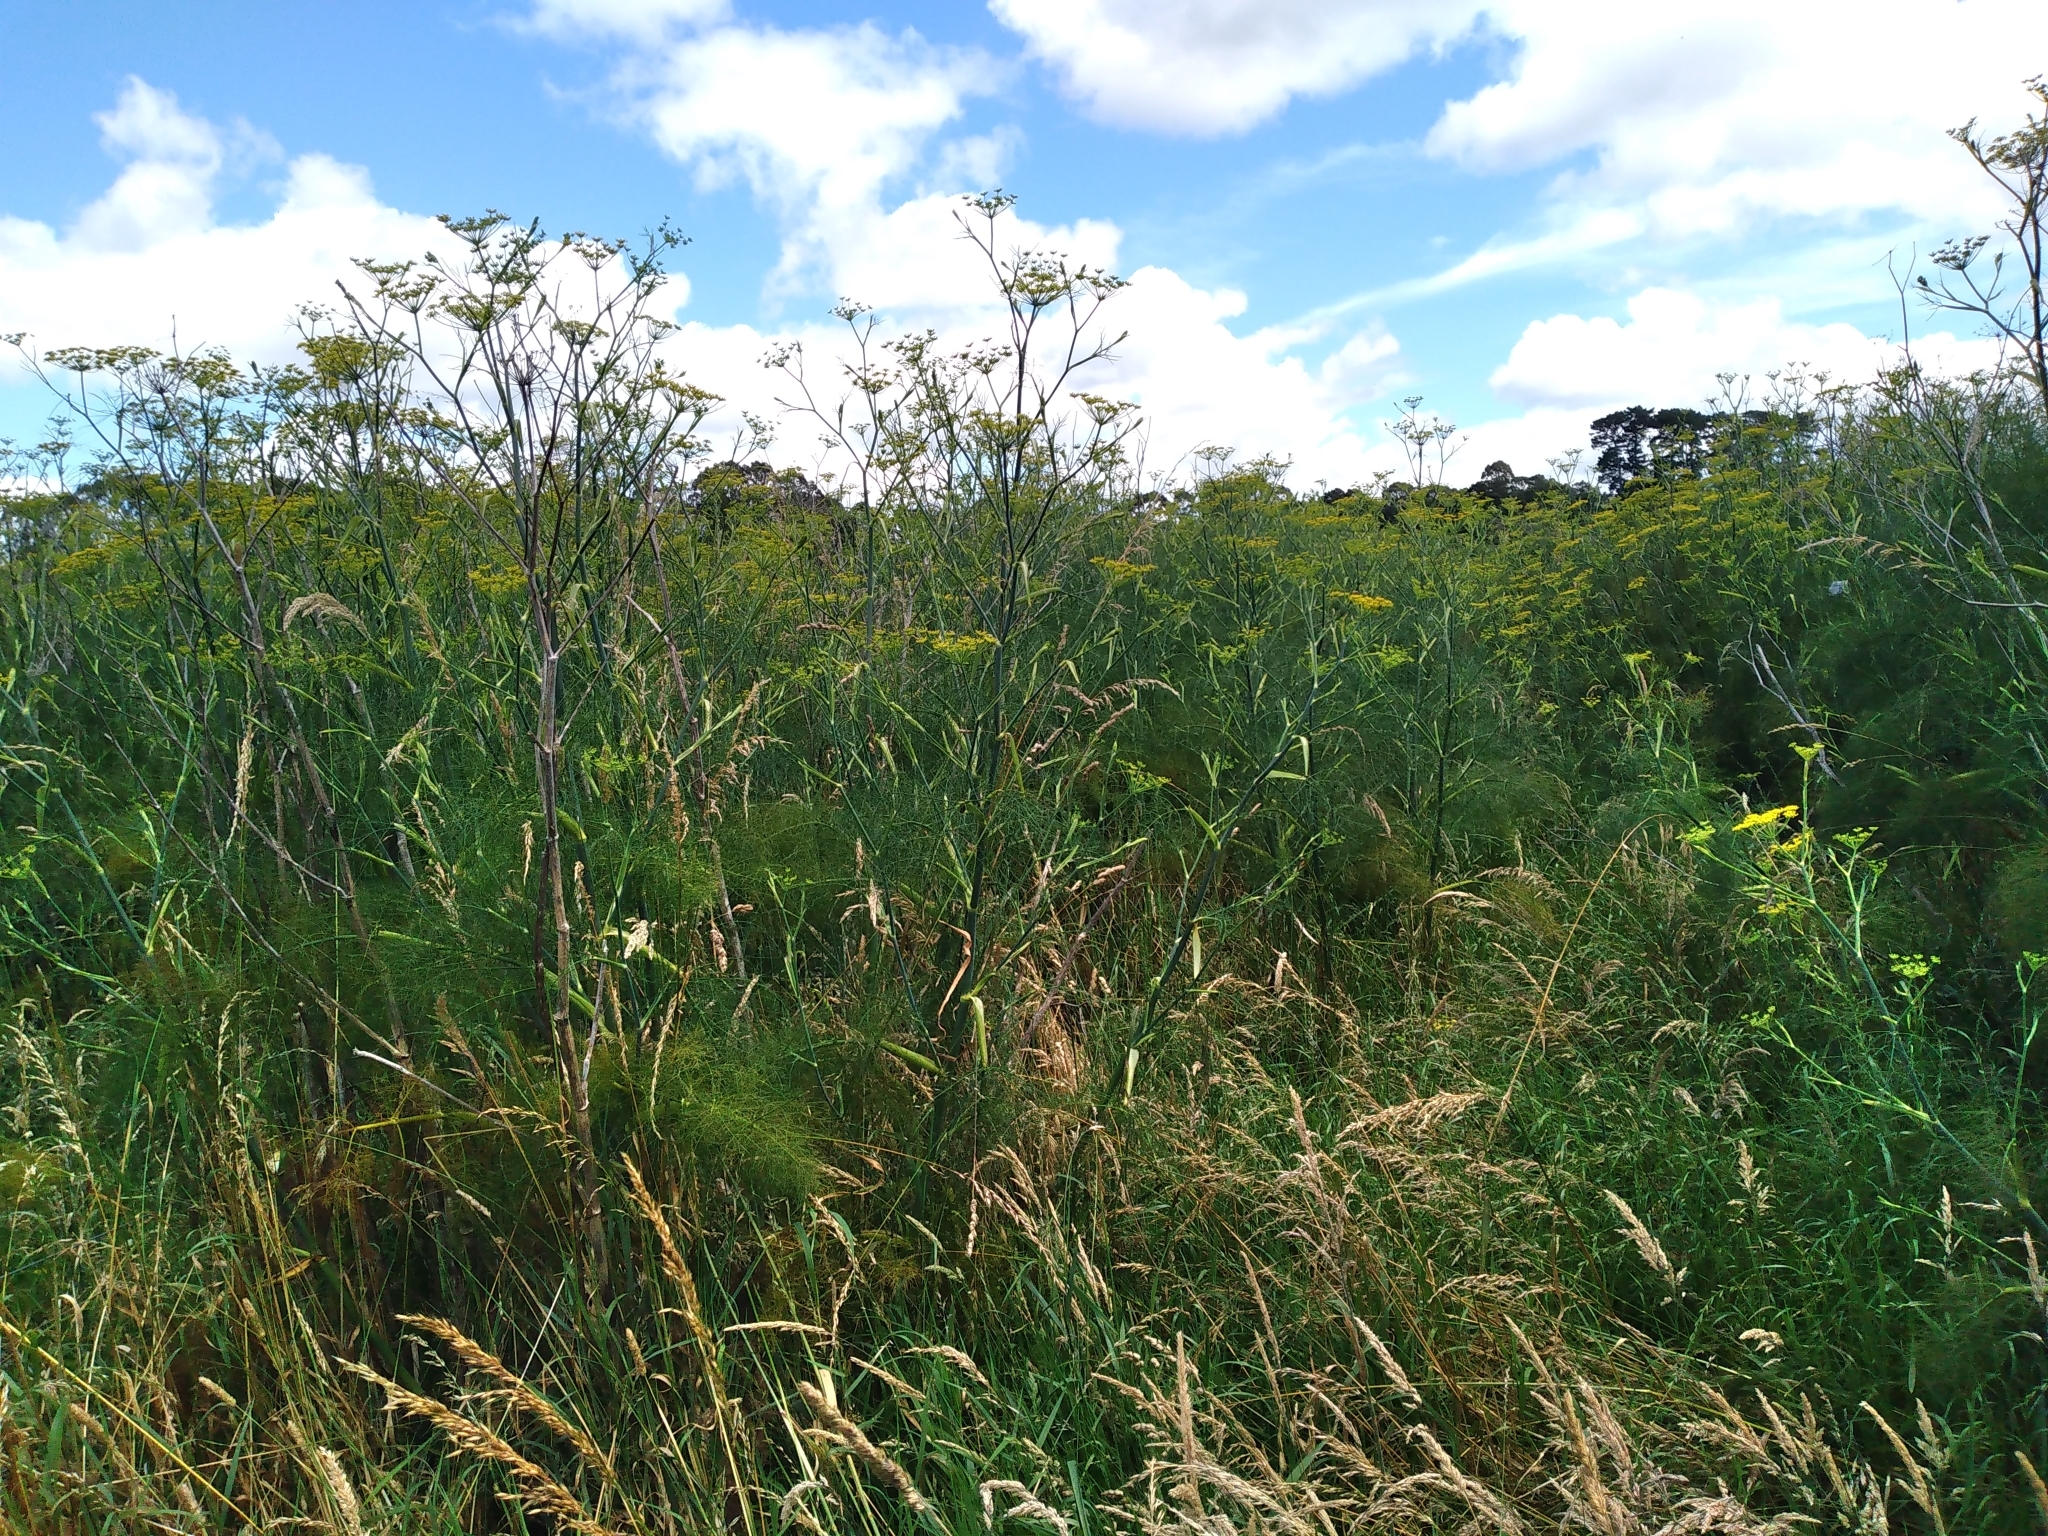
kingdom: Plantae
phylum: Tracheophyta
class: Magnoliopsida
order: Apiales
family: Apiaceae
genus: Foeniculum
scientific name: Foeniculum vulgare
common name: Fennel
